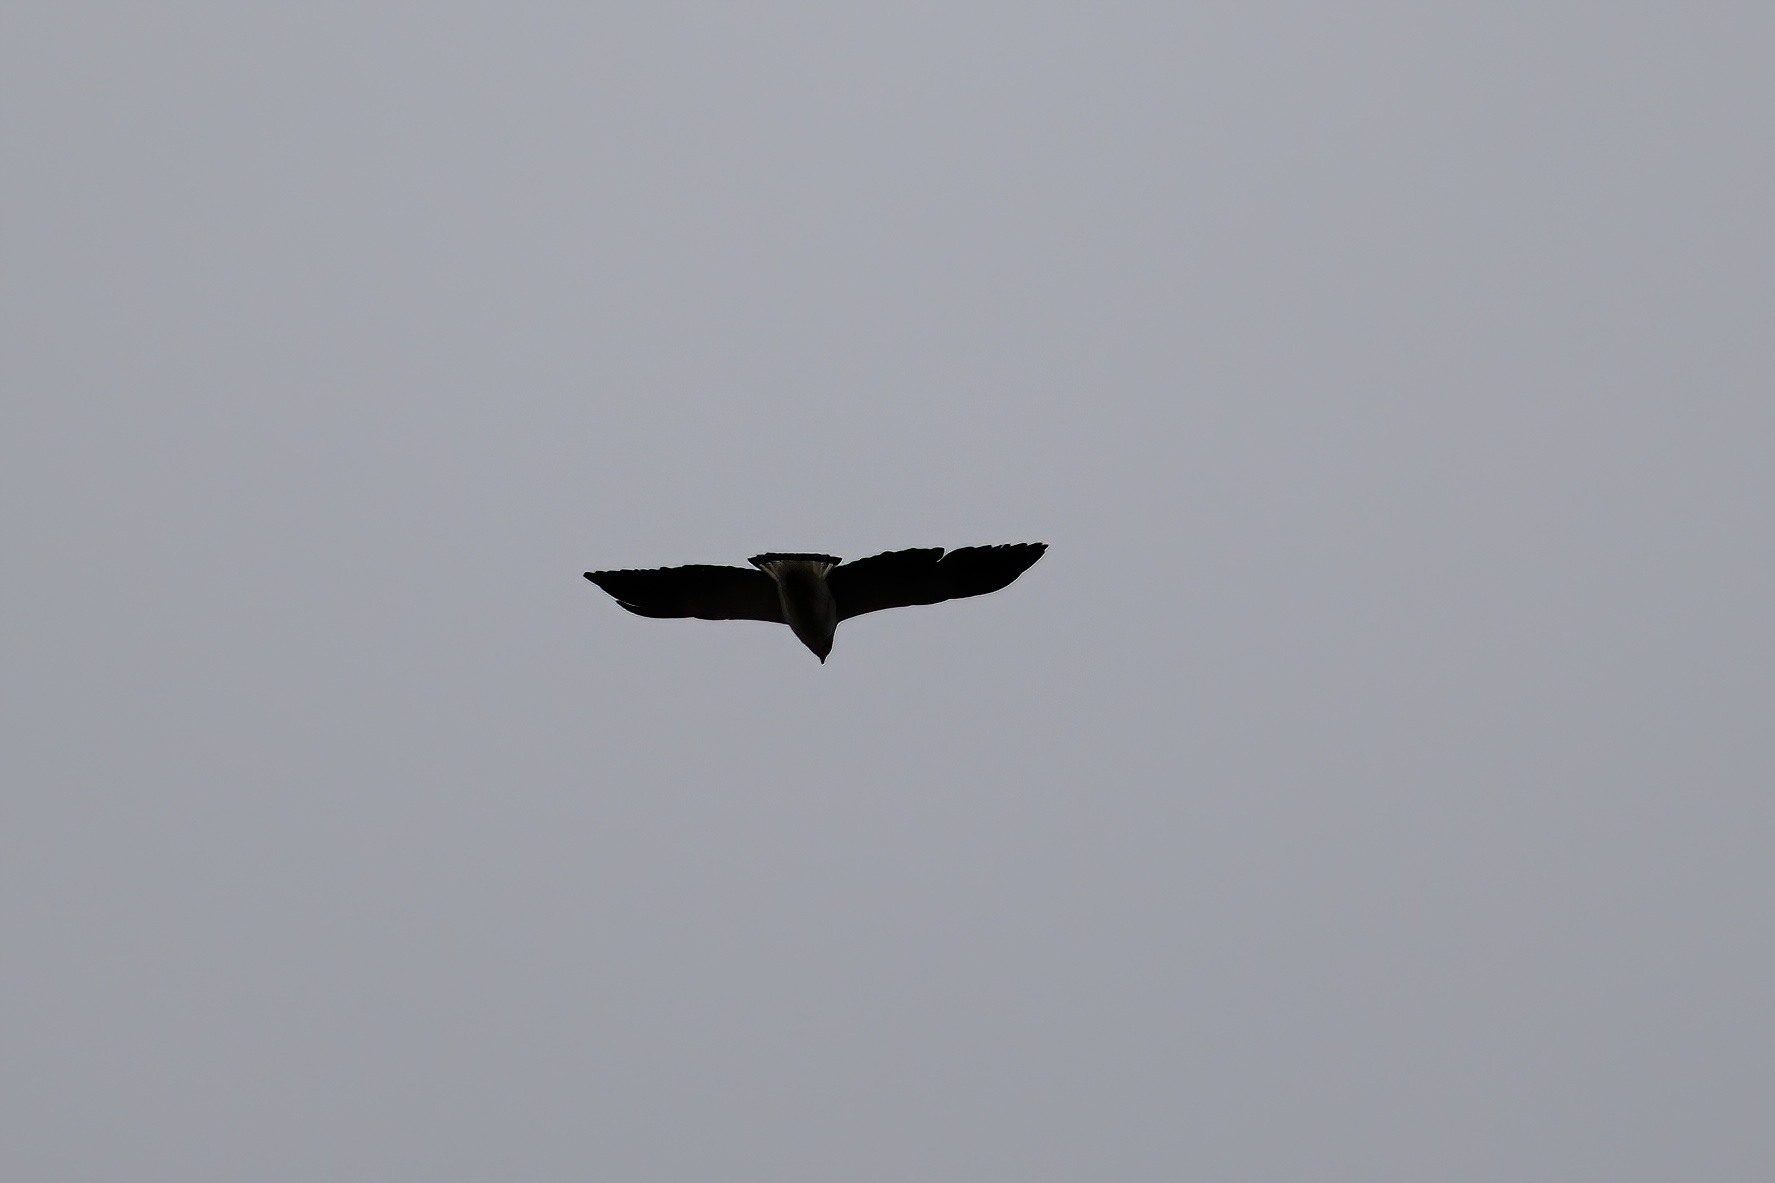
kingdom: Animalia
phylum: Chordata
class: Aves
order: Accipitriformes
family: Accipitridae
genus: Buteo
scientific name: Buteo albicaudatus
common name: White-tailed hawk
